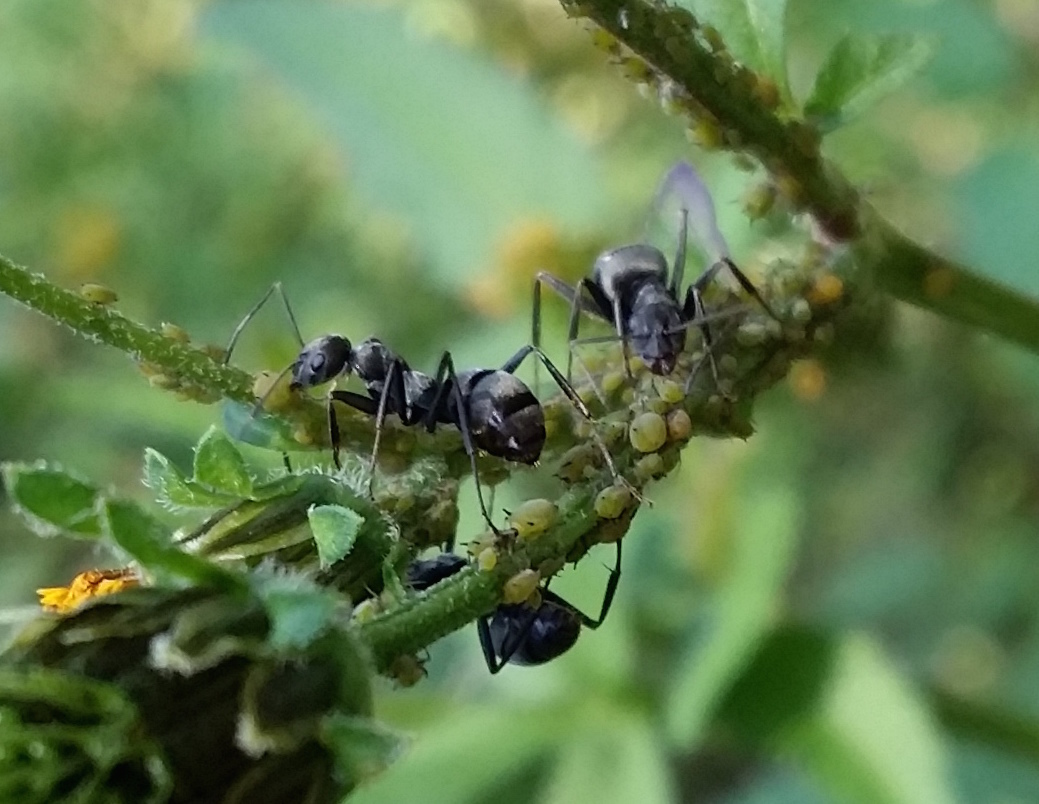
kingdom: Animalia
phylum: Arthropoda
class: Insecta
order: Hymenoptera
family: Formicidae
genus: Formica
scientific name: Formica japonica
